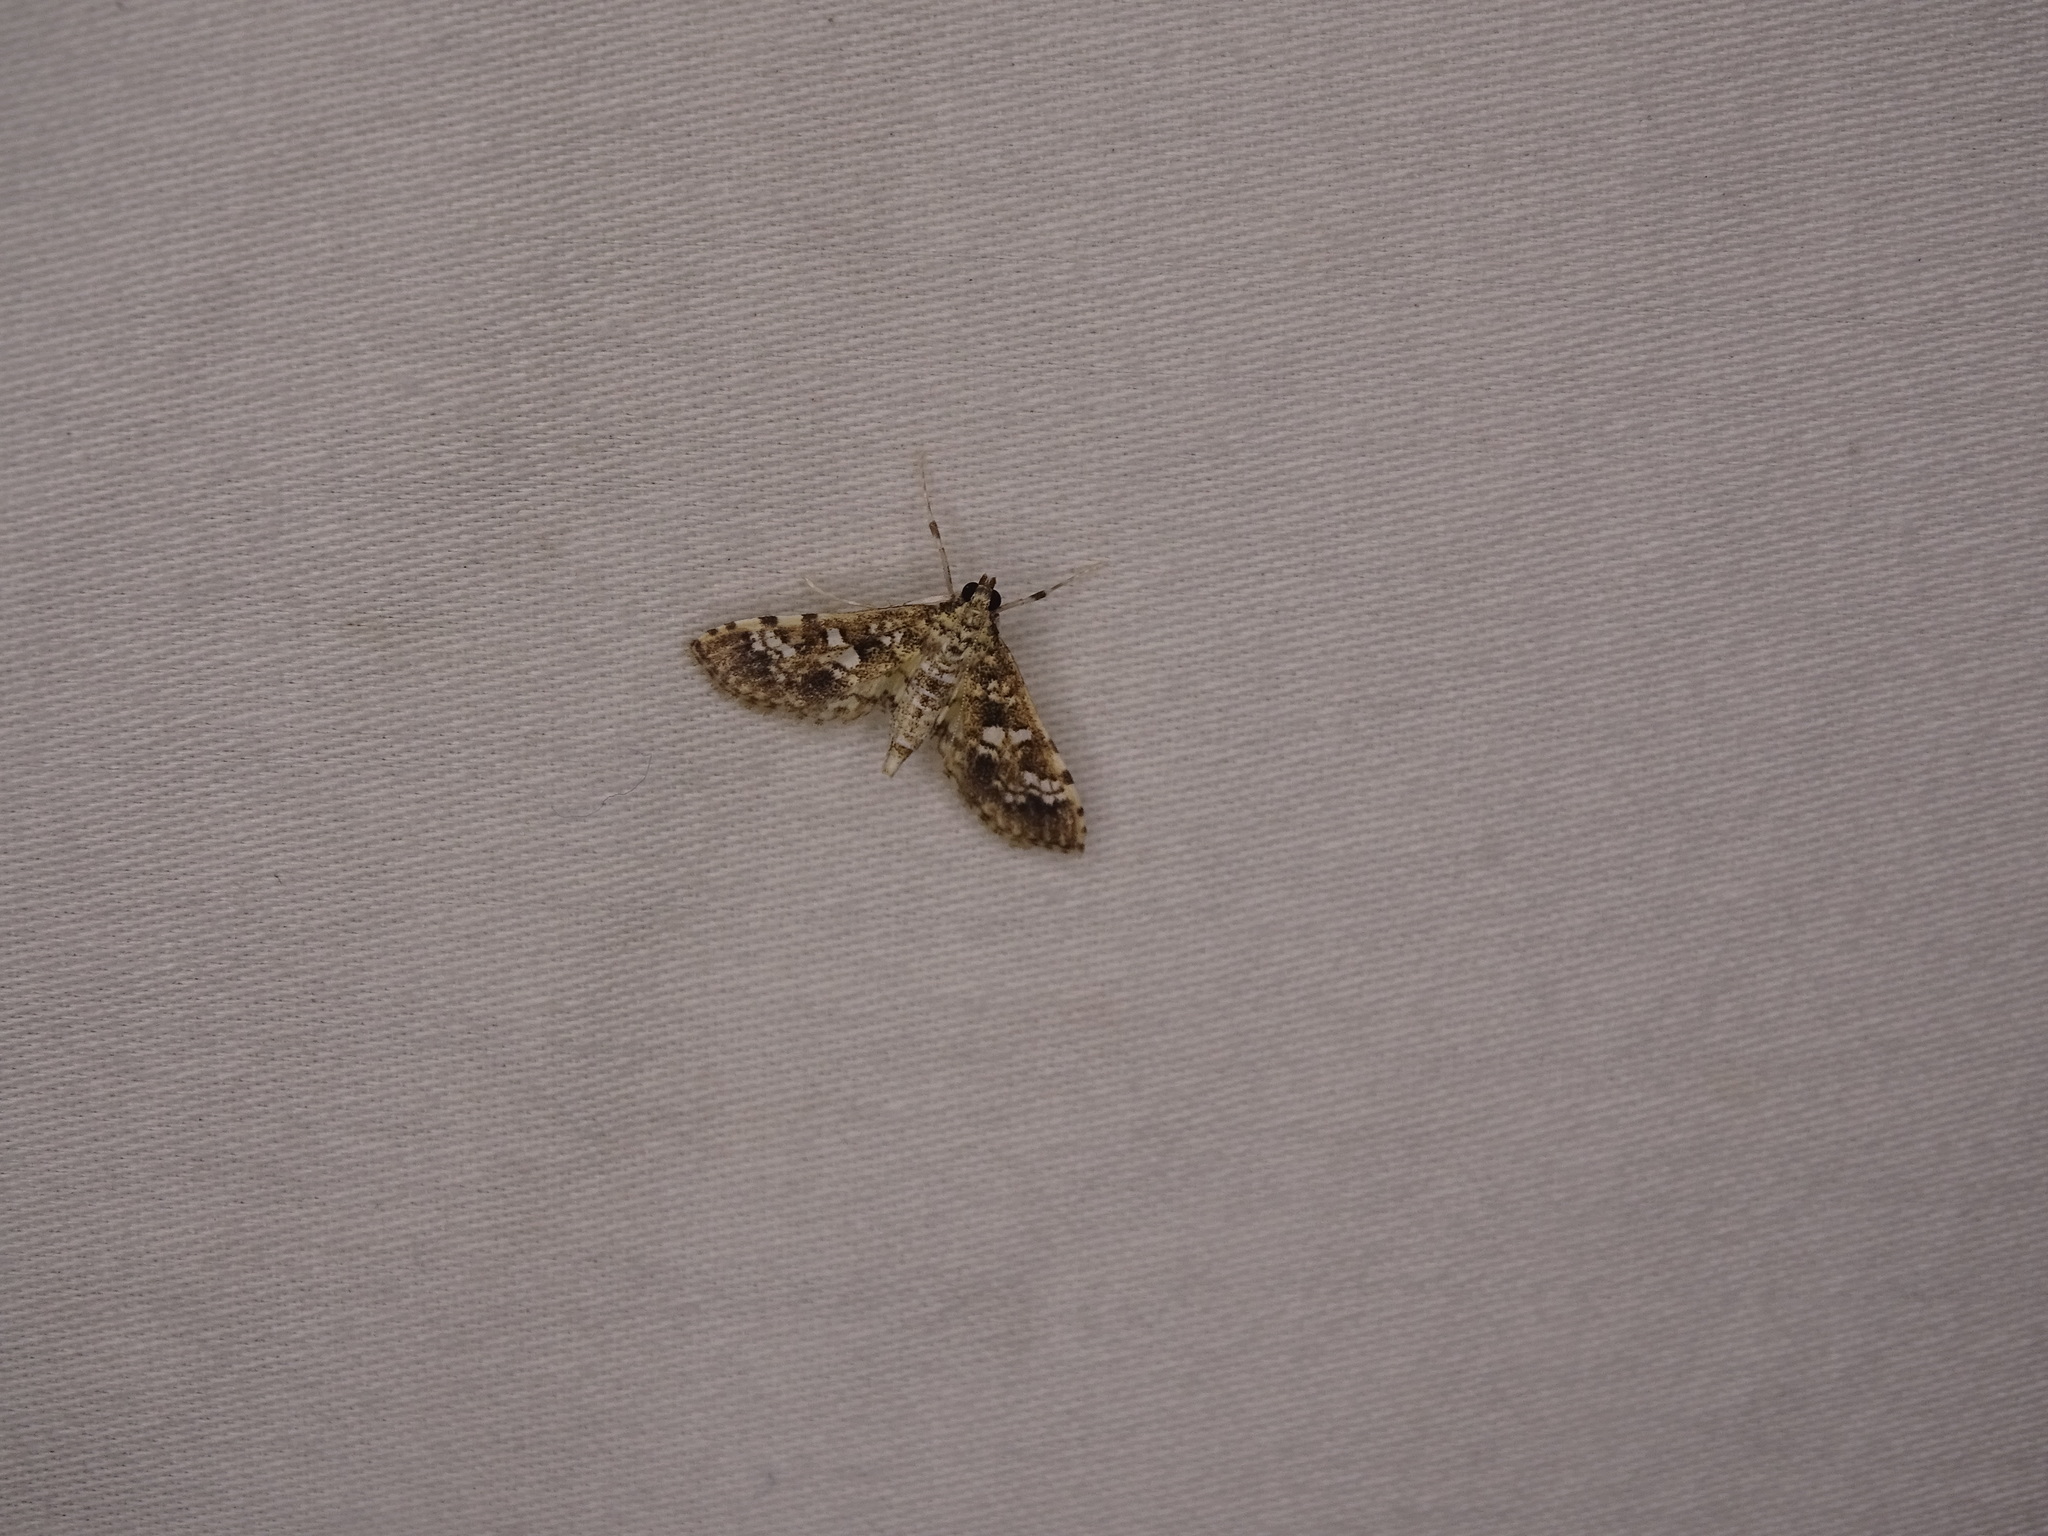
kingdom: Animalia
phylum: Arthropoda
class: Insecta
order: Lepidoptera
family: Crambidae
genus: Samea
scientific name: Samea multiplicalis
